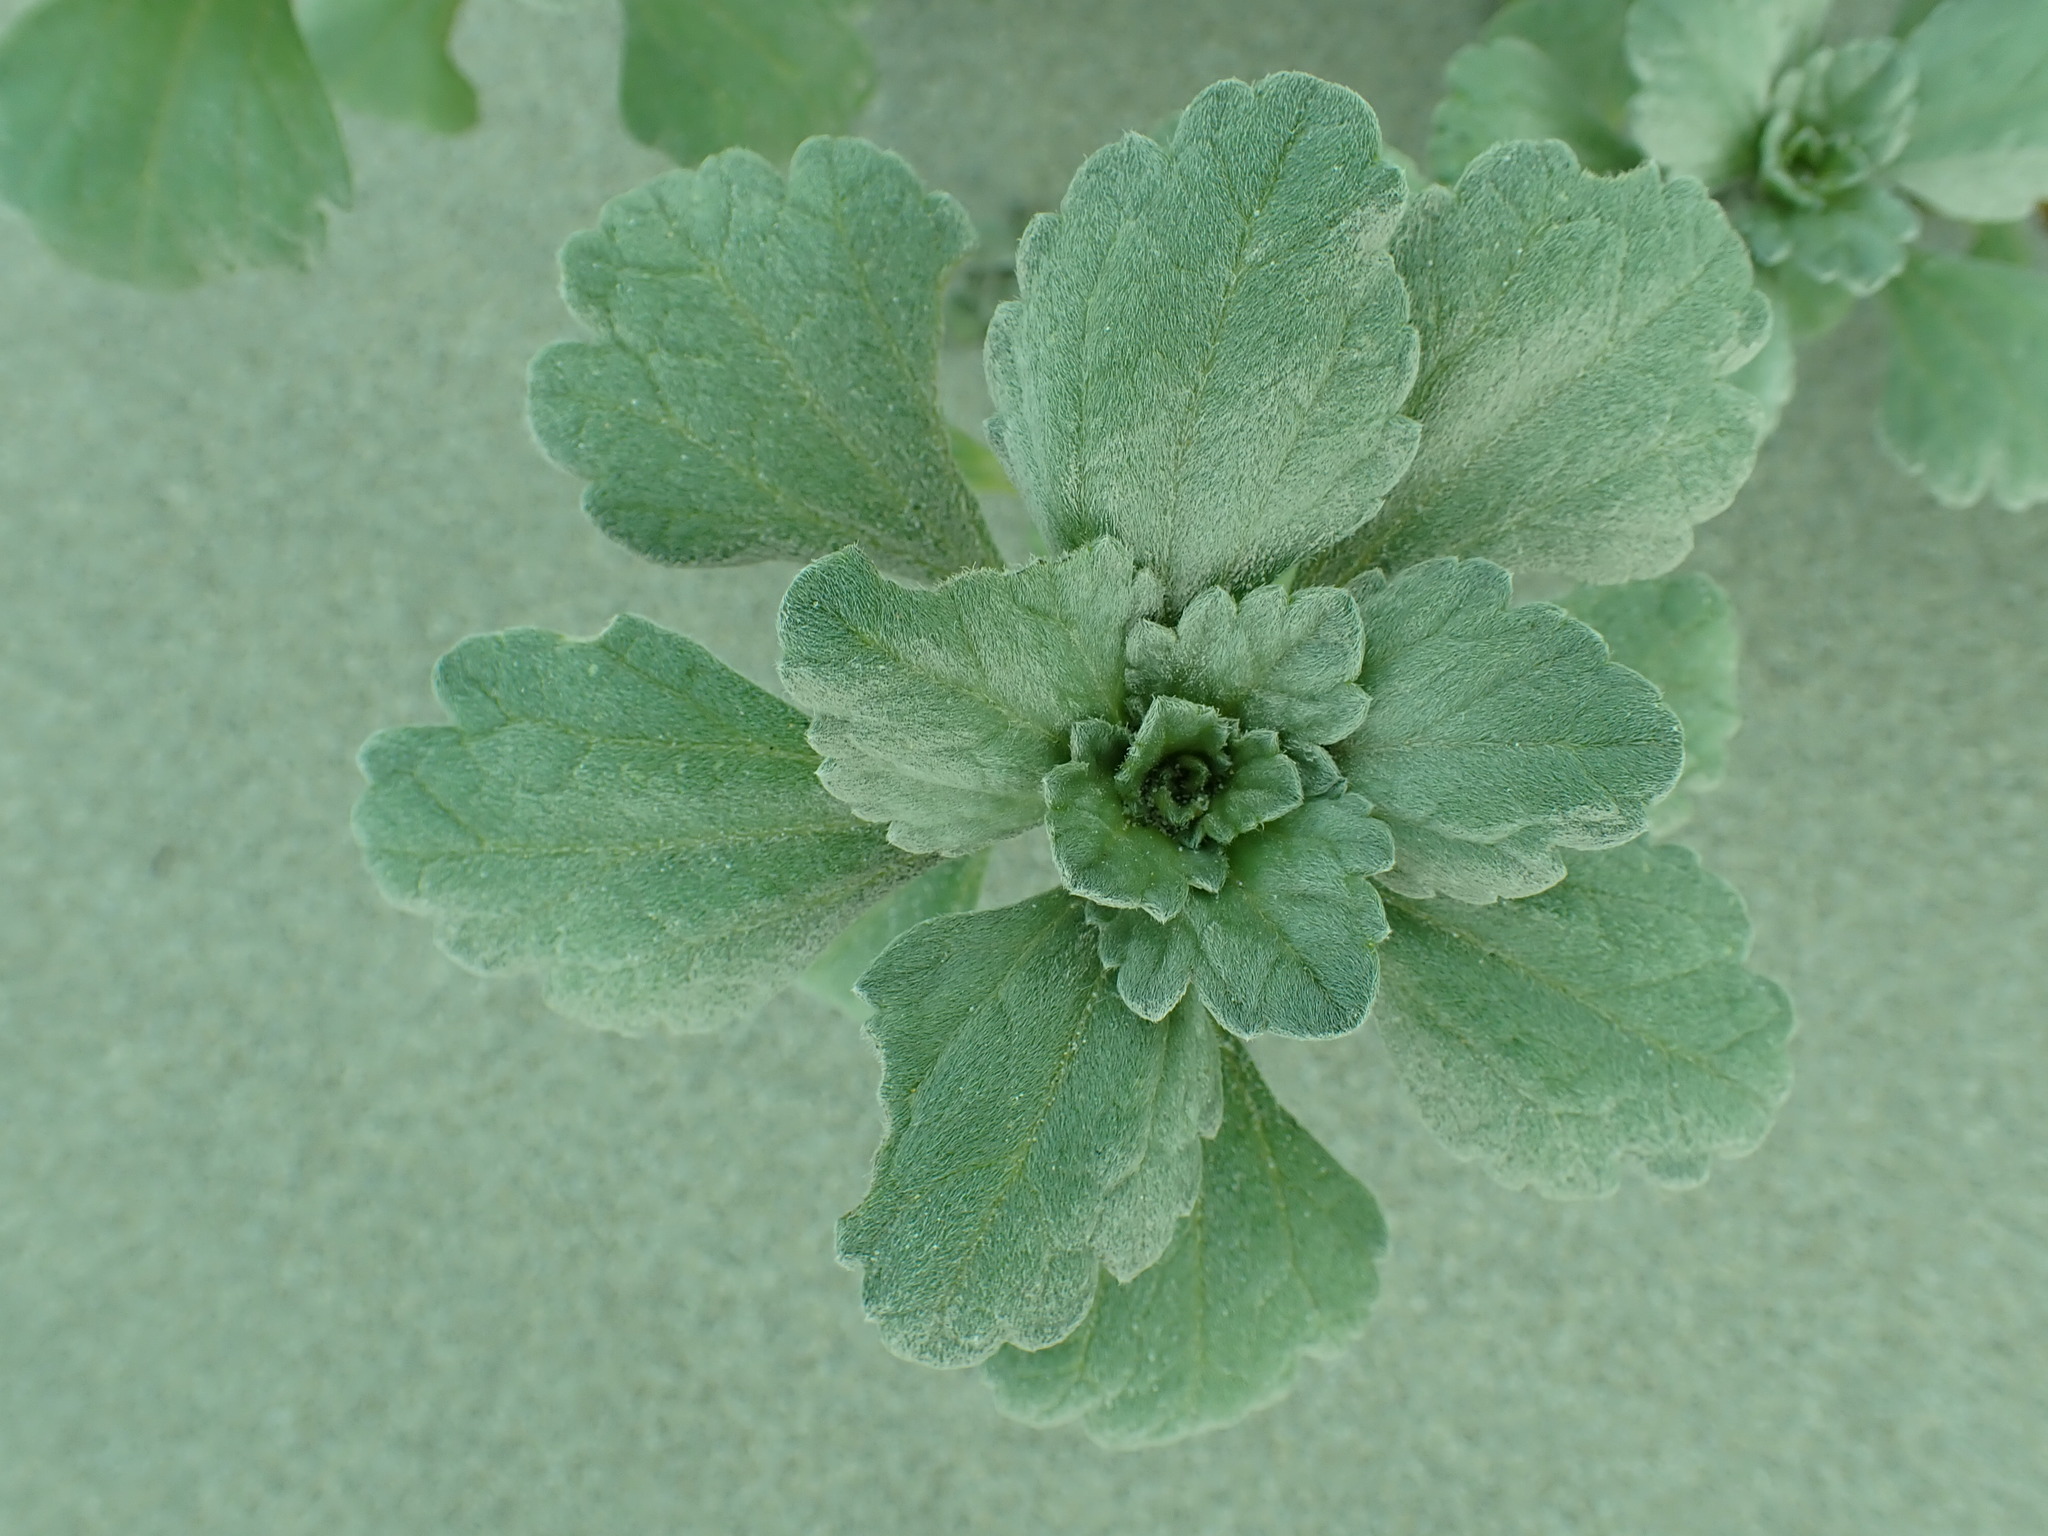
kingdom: Plantae
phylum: Tracheophyta
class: Magnoliopsida
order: Asterales
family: Asteraceae
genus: Ambrosia
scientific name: Ambrosia chamissonis
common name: Beachbur
